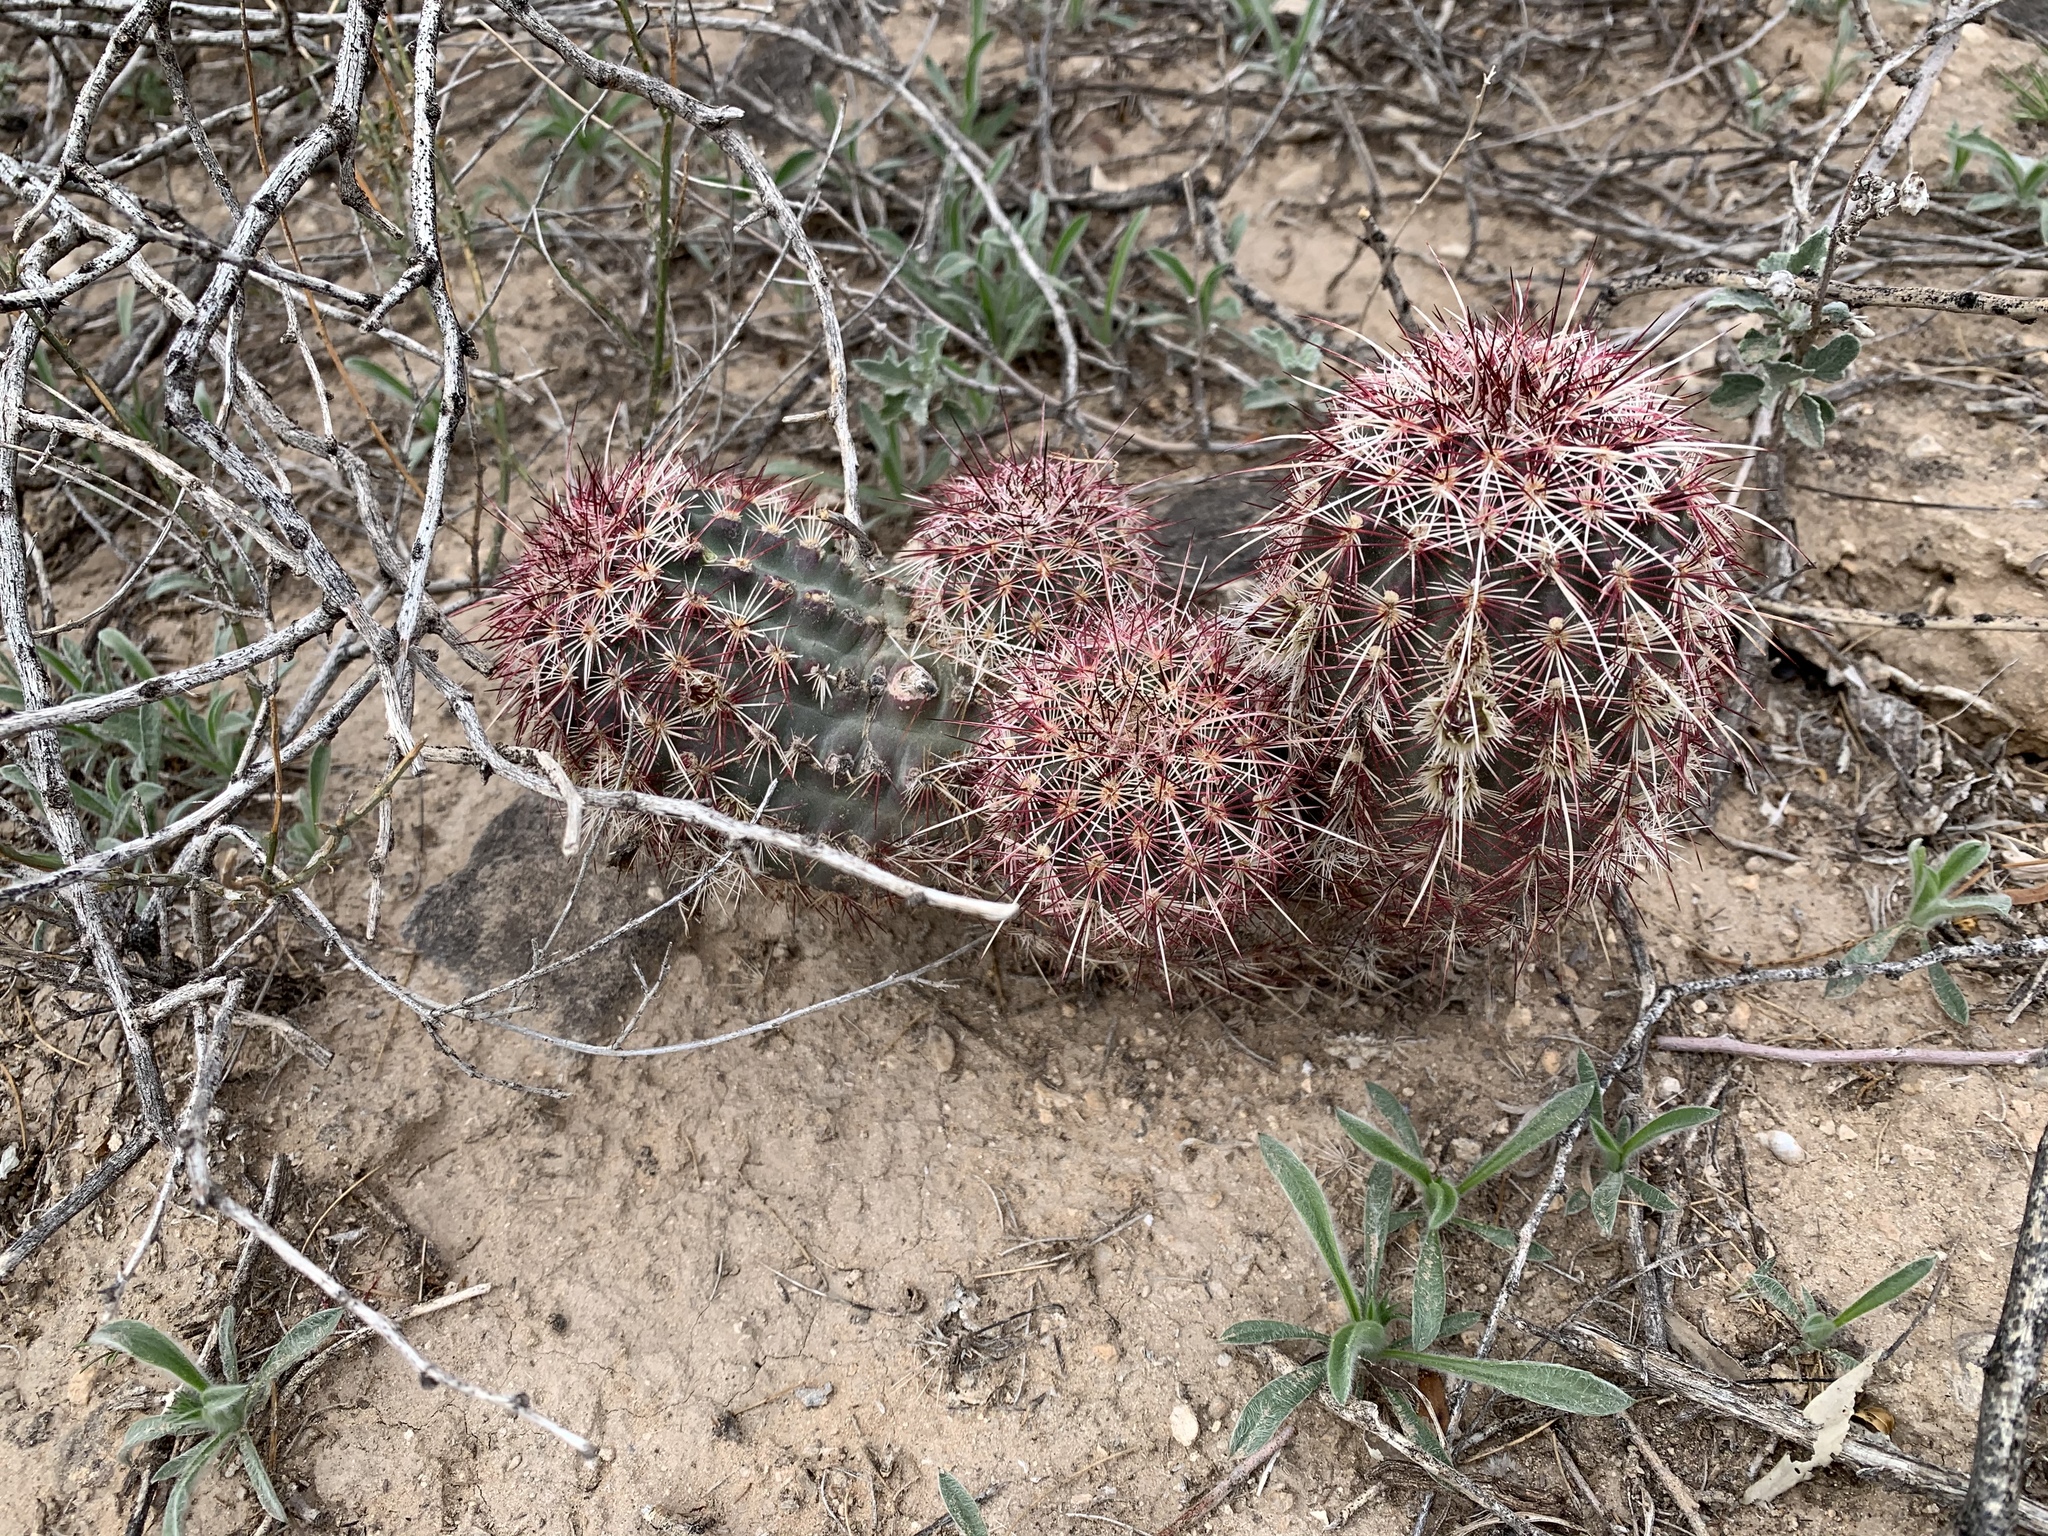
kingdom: Plantae
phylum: Tracheophyta
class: Magnoliopsida
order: Caryophyllales
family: Cactaceae
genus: Echinocereus
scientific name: Echinocereus viridiflorus
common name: Nylon hedgehog cactus
